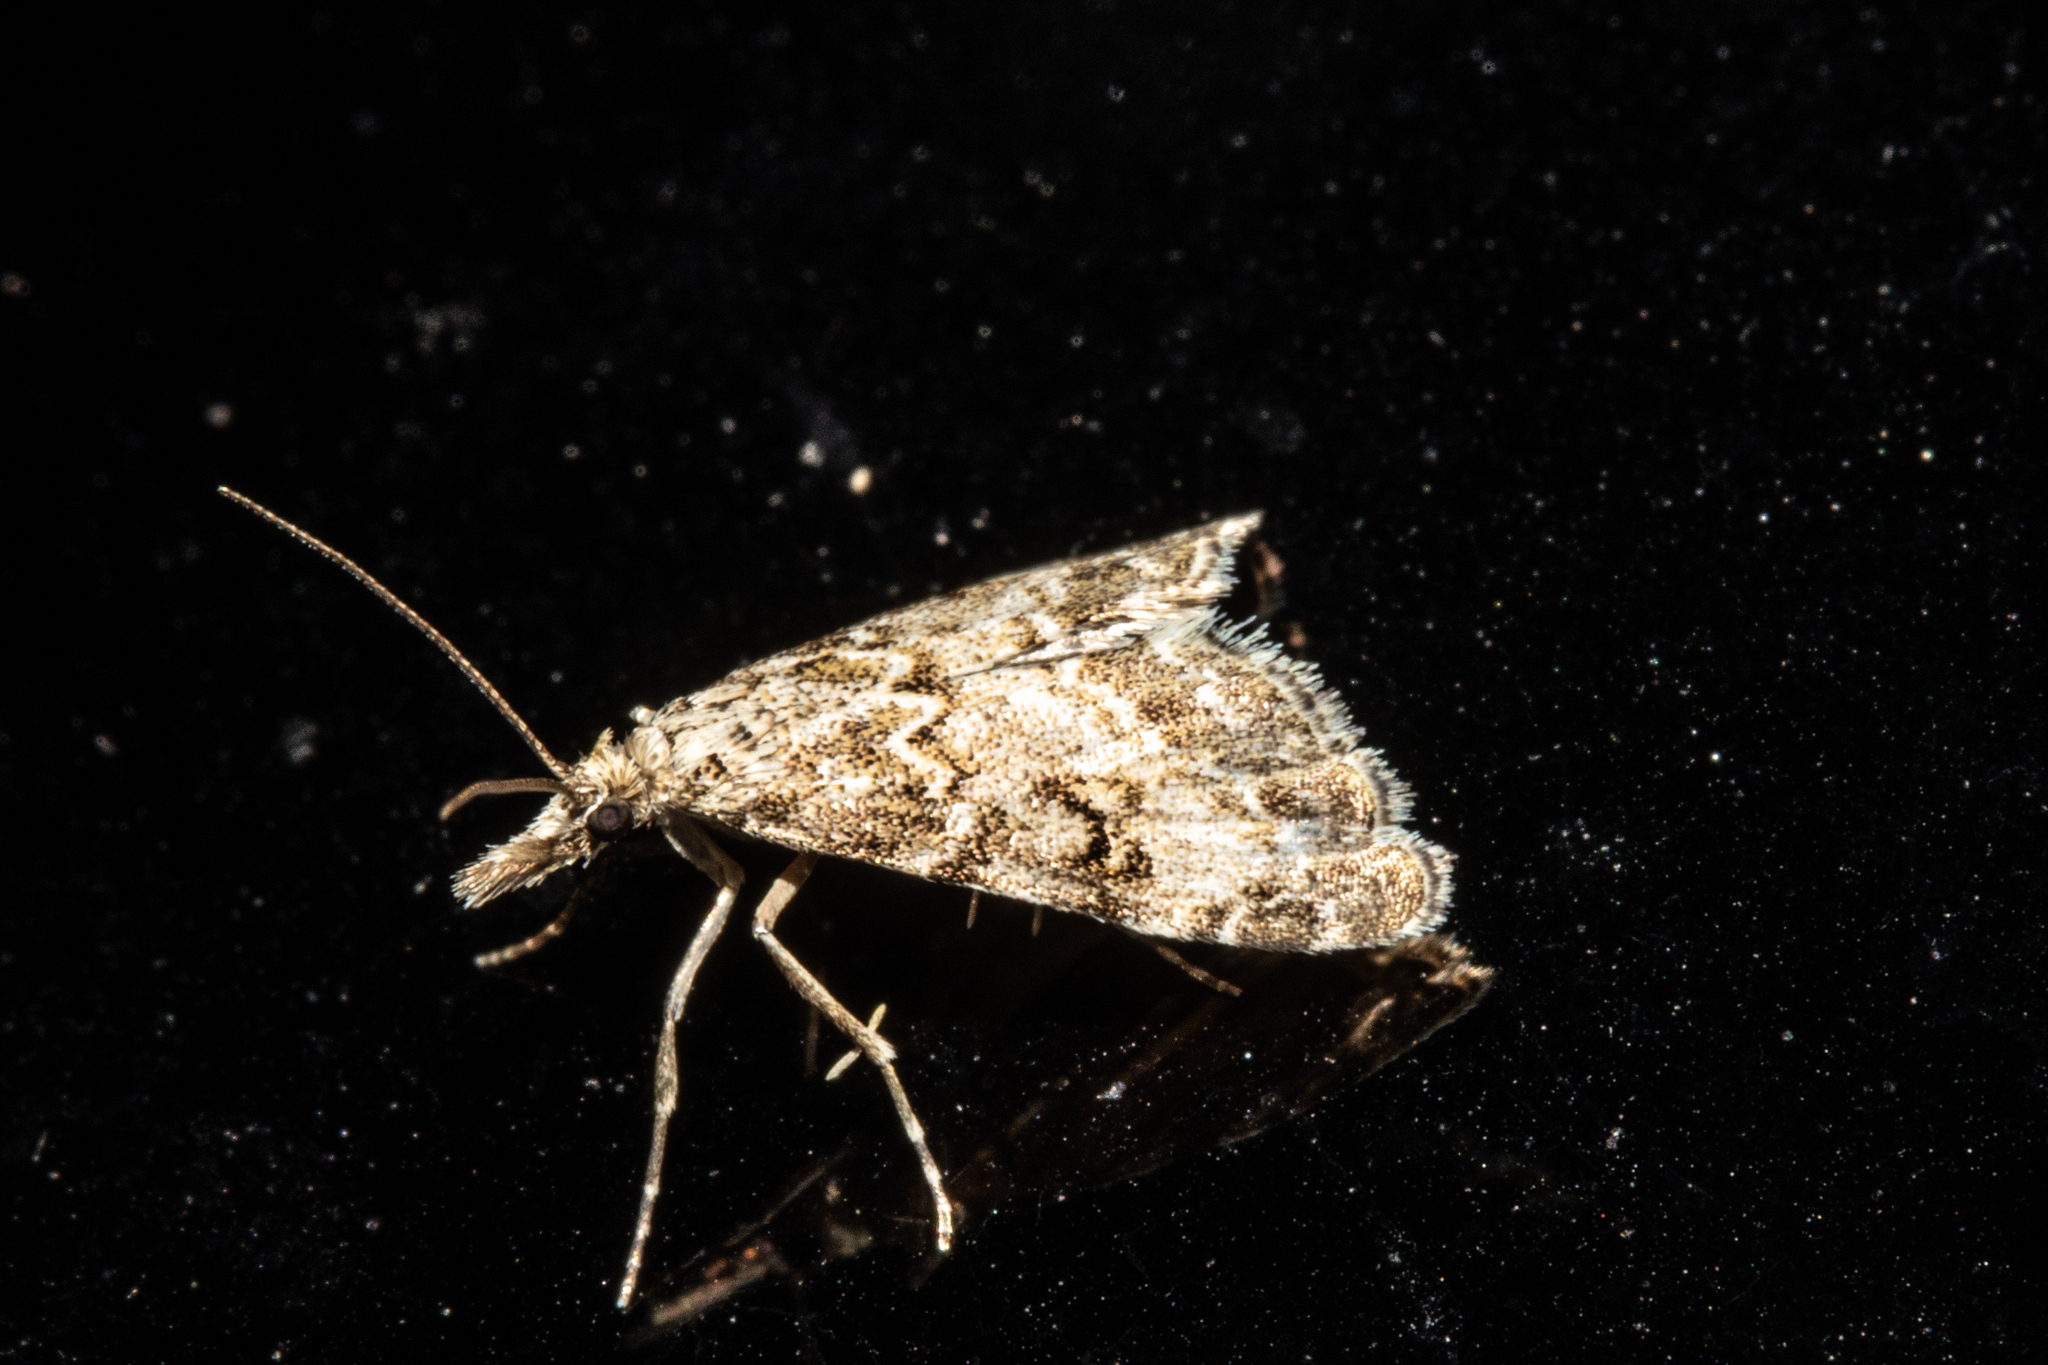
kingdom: Animalia
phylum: Arthropoda
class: Insecta
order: Lepidoptera
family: Crambidae
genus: Glaucocharis
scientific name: Glaucocharis elaina
